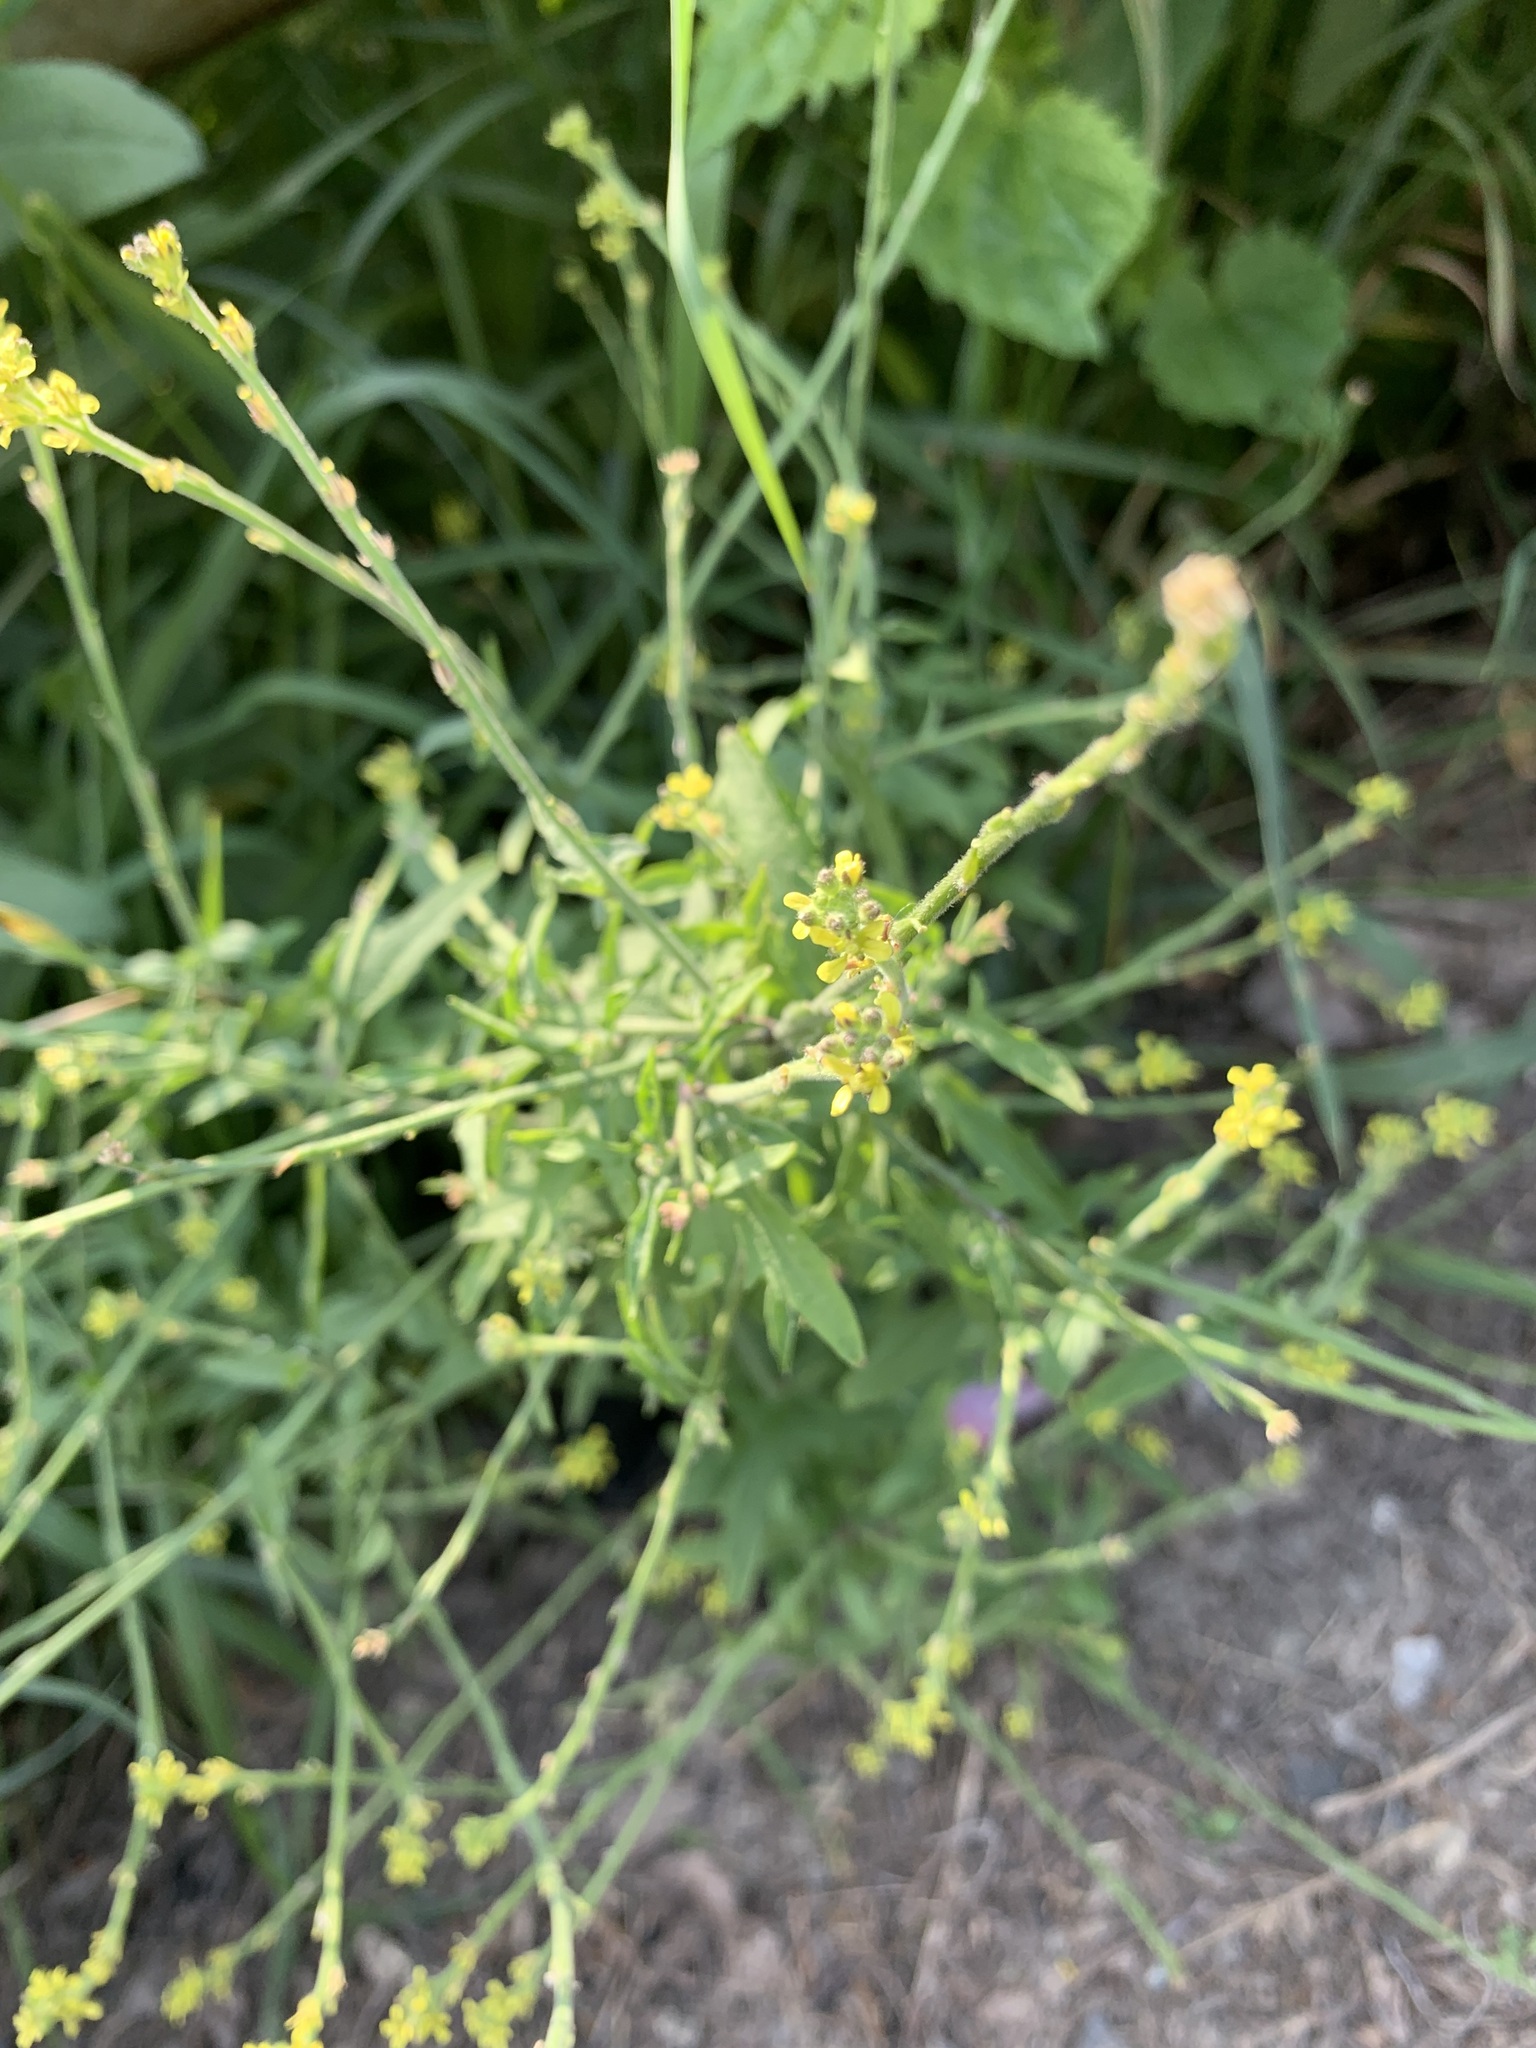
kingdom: Plantae
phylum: Tracheophyta
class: Magnoliopsida
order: Brassicales
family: Brassicaceae
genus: Sisymbrium
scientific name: Sisymbrium officinale
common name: Hedge mustard
